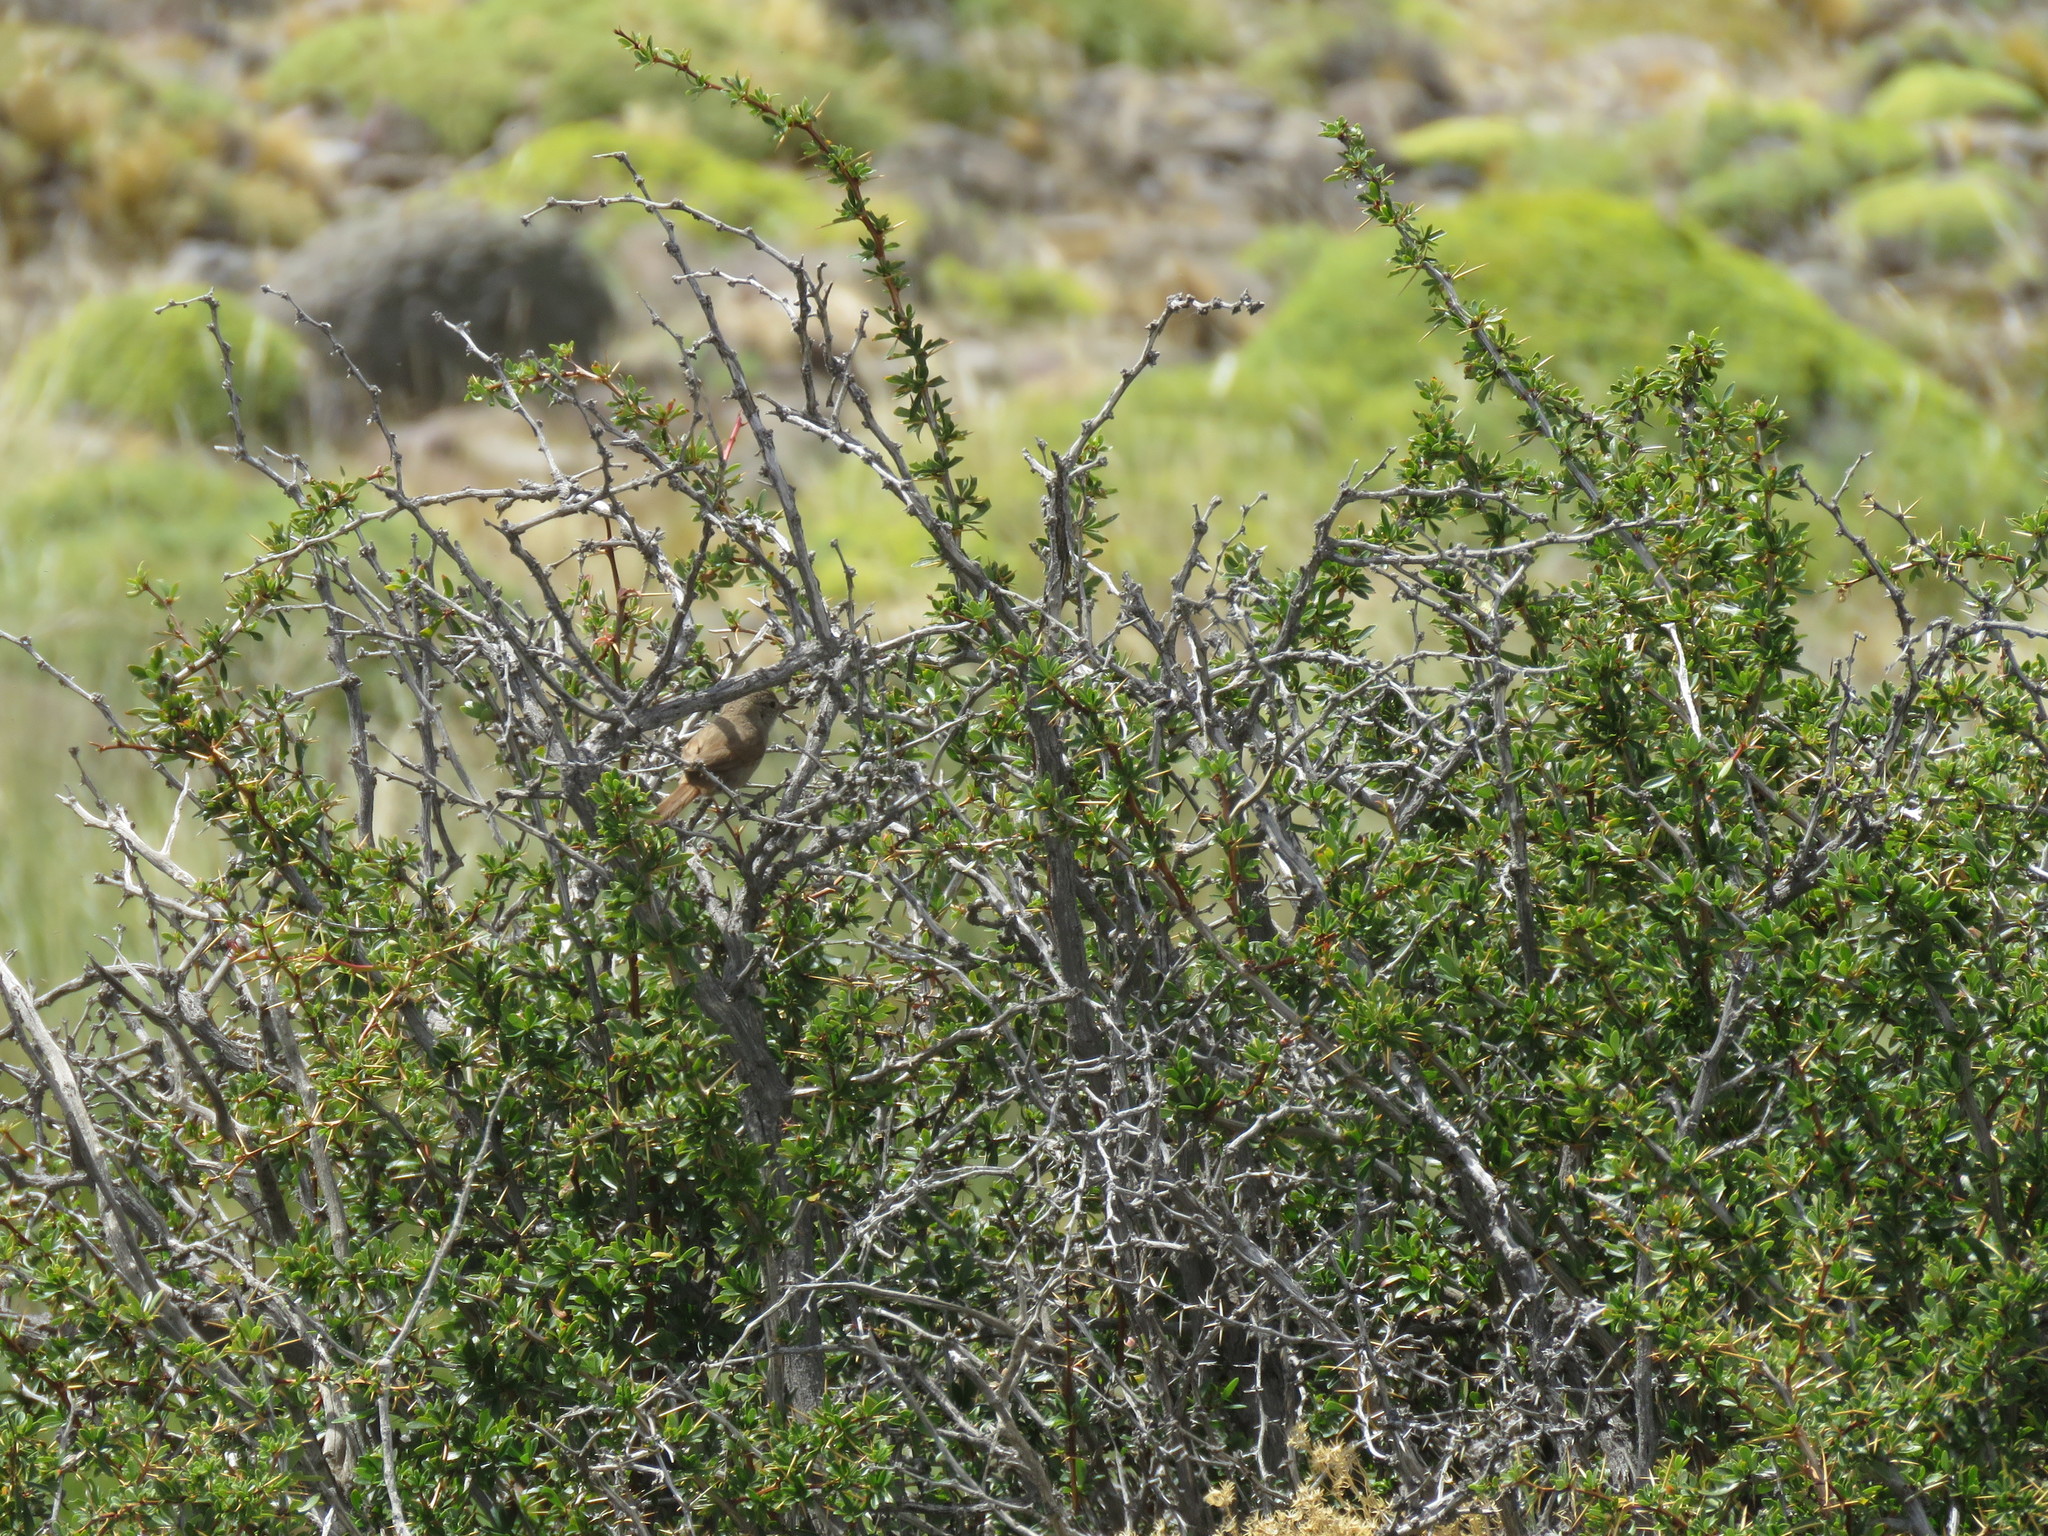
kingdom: Animalia
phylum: Chordata
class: Aves
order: Passeriformes
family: Furnariidae
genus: Asthenes
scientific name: Asthenes pyrrholeuca
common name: Sharp-billed canastero
